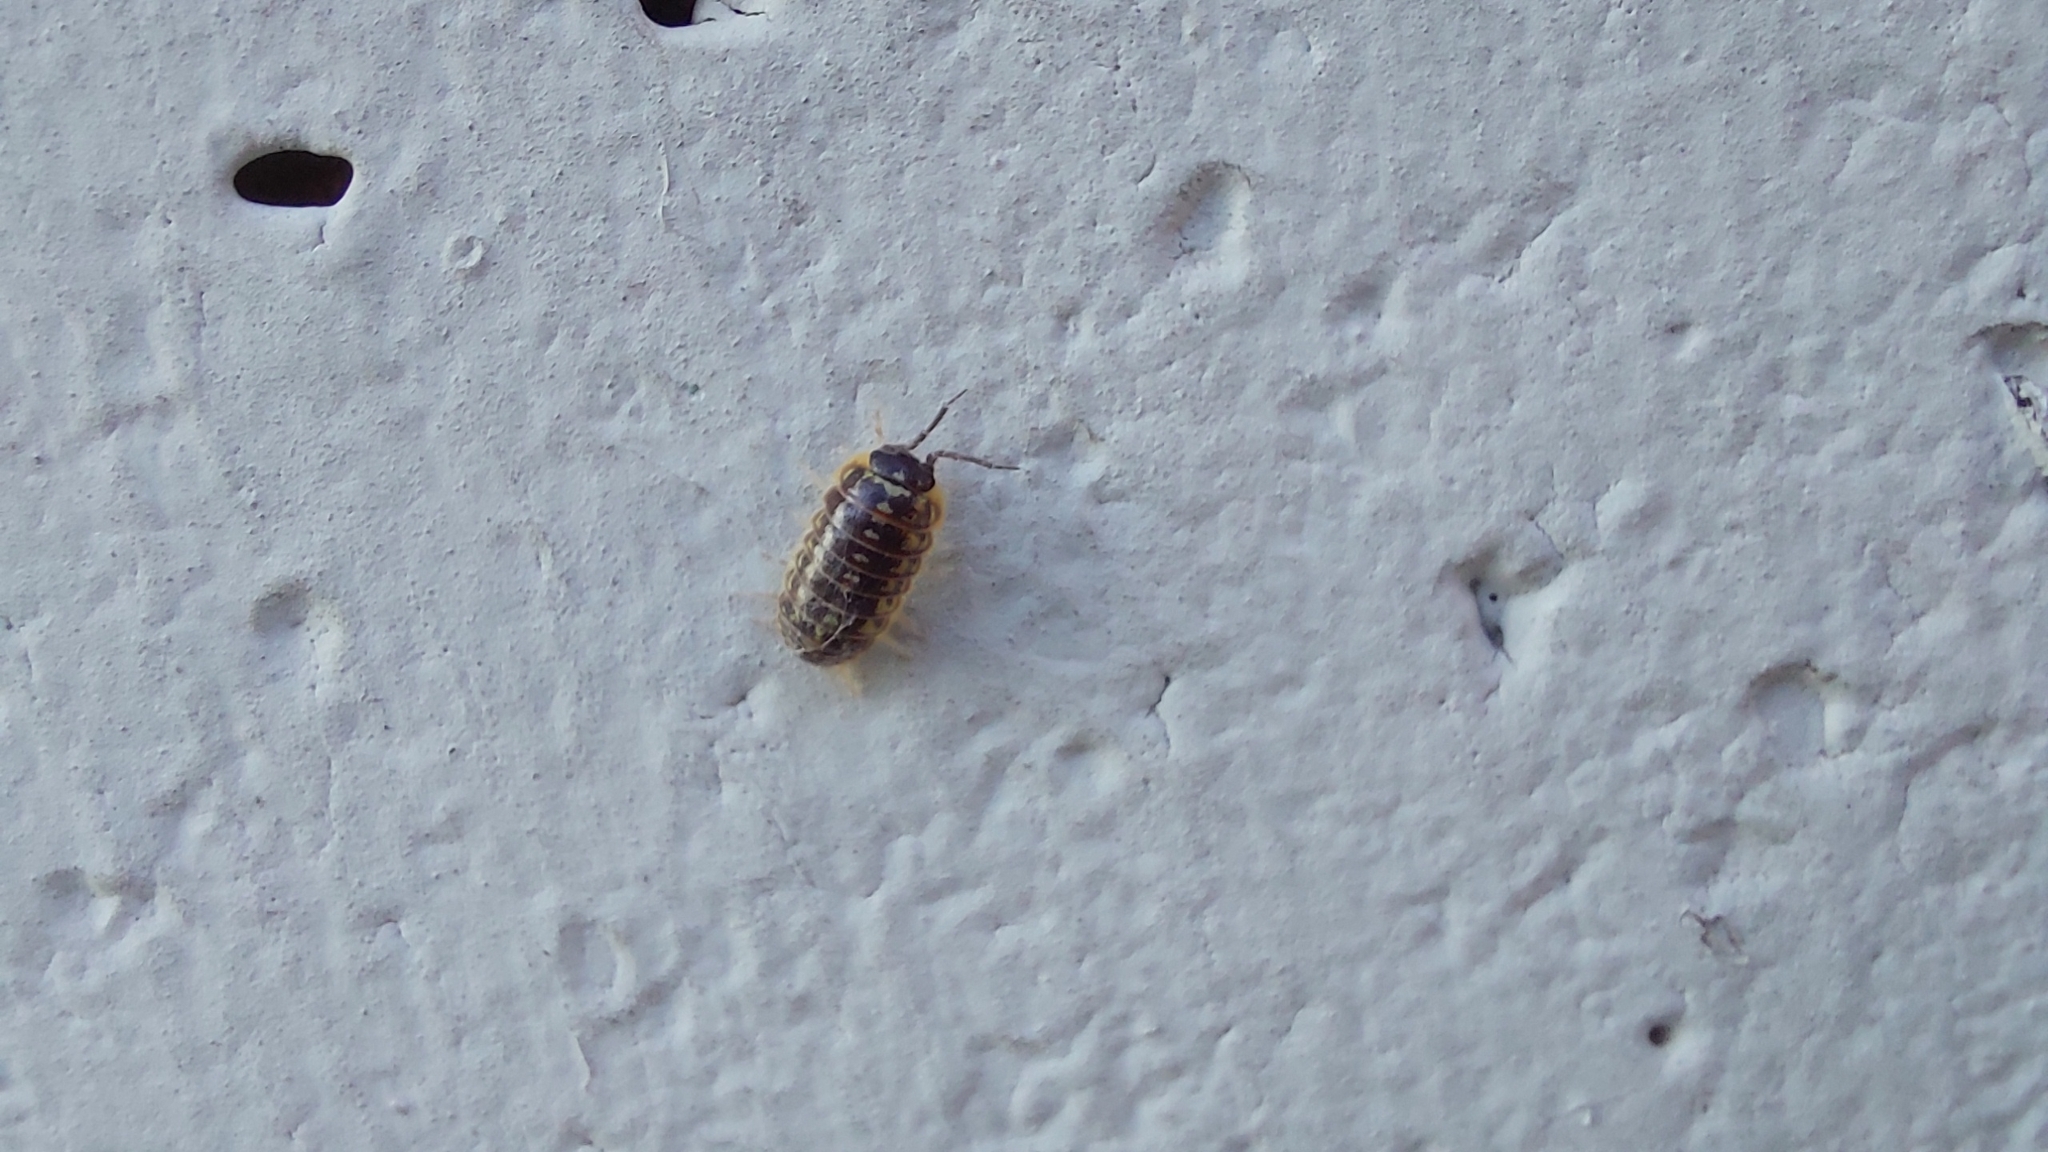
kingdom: Animalia
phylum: Arthropoda
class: Malacostraca
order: Isopoda
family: Armadillidiidae
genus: Armadillidium
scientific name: Armadillidium versicolor
